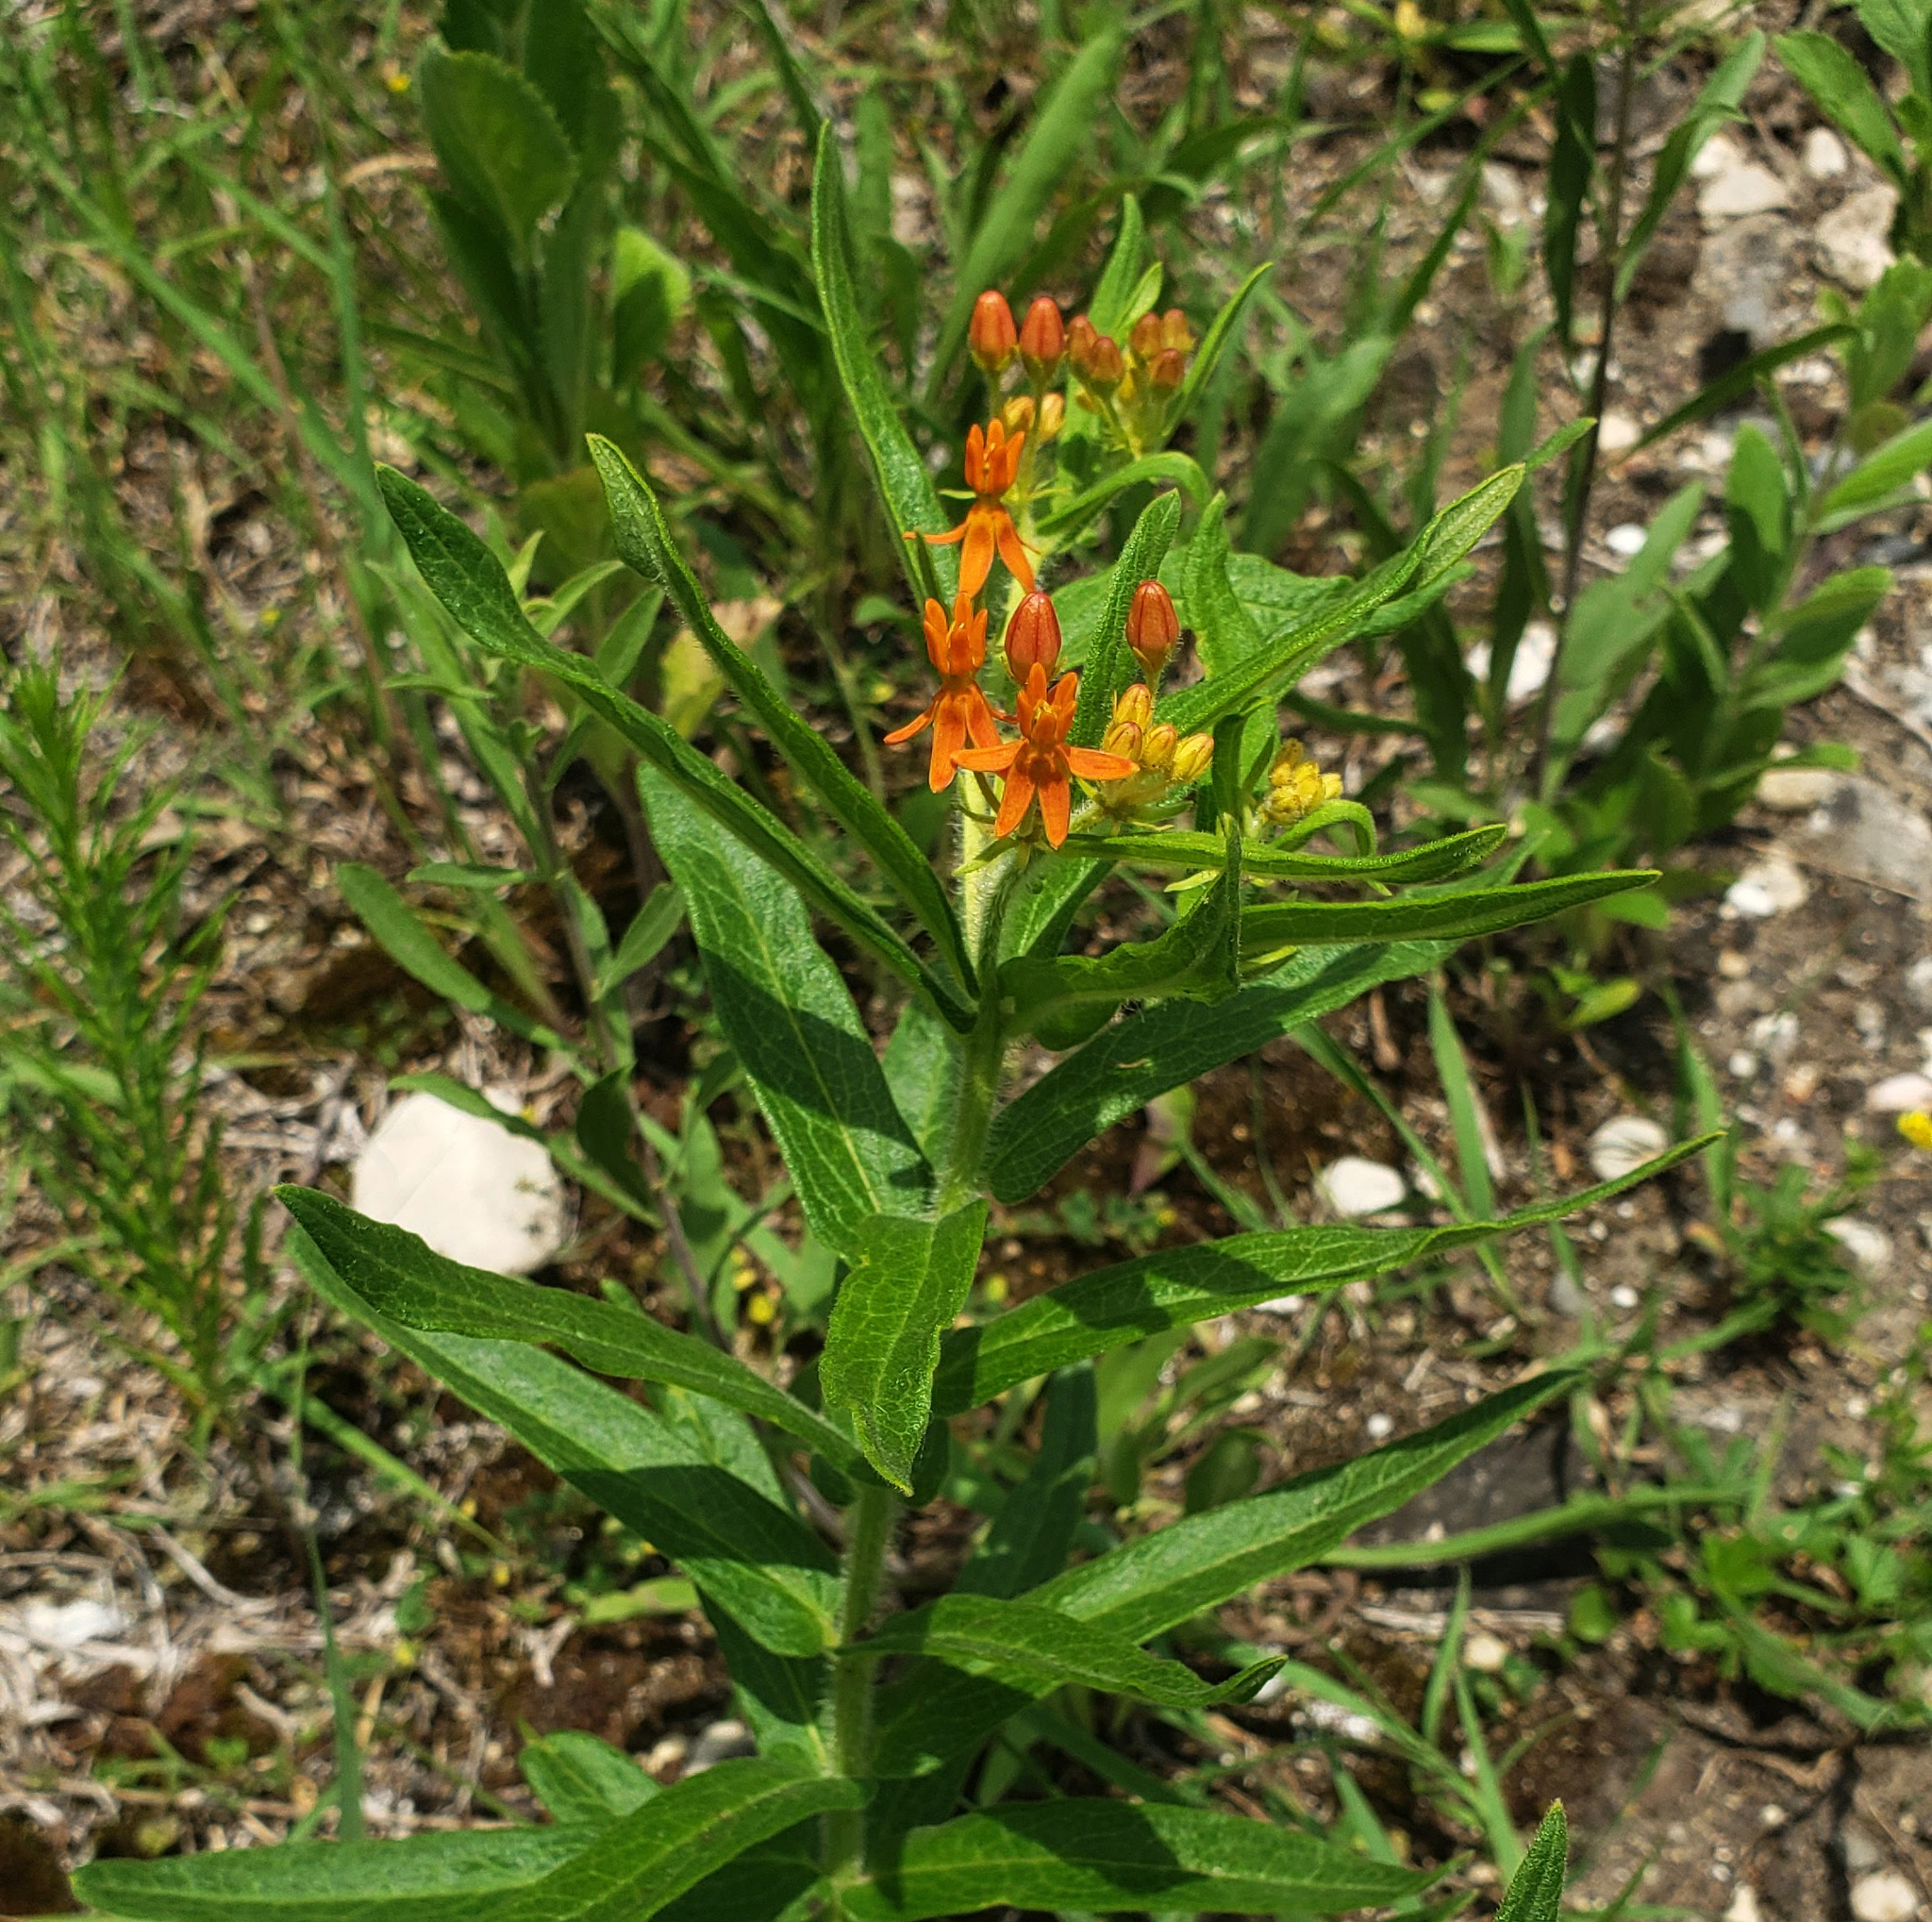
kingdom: Plantae
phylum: Tracheophyta
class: Magnoliopsida
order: Gentianales
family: Apocynaceae
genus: Asclepias
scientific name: Asclepias tuberosa
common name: Butterfly milkweed
